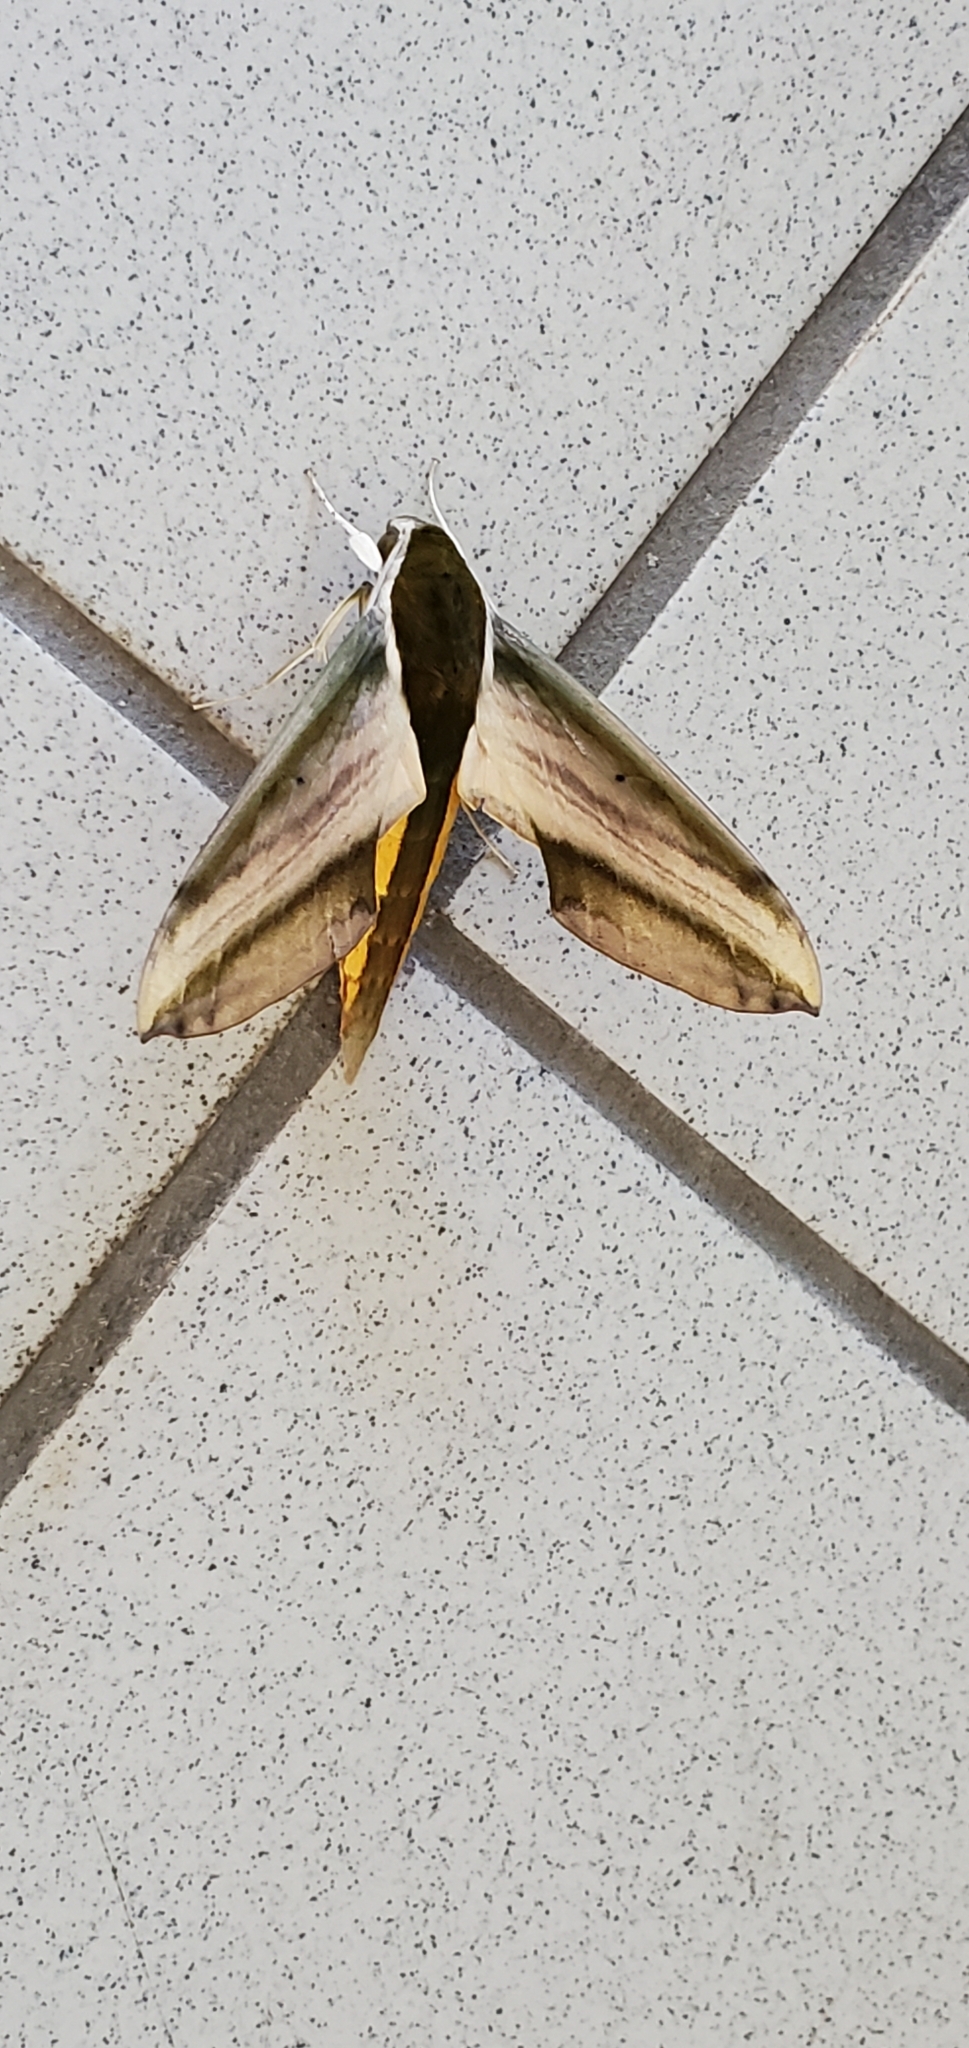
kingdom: Animalia
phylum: Arthropoda
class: Insecta
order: Lepidoptera
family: Sphingidae
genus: Theretra
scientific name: Theretra nessus
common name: Yam hawk moth
